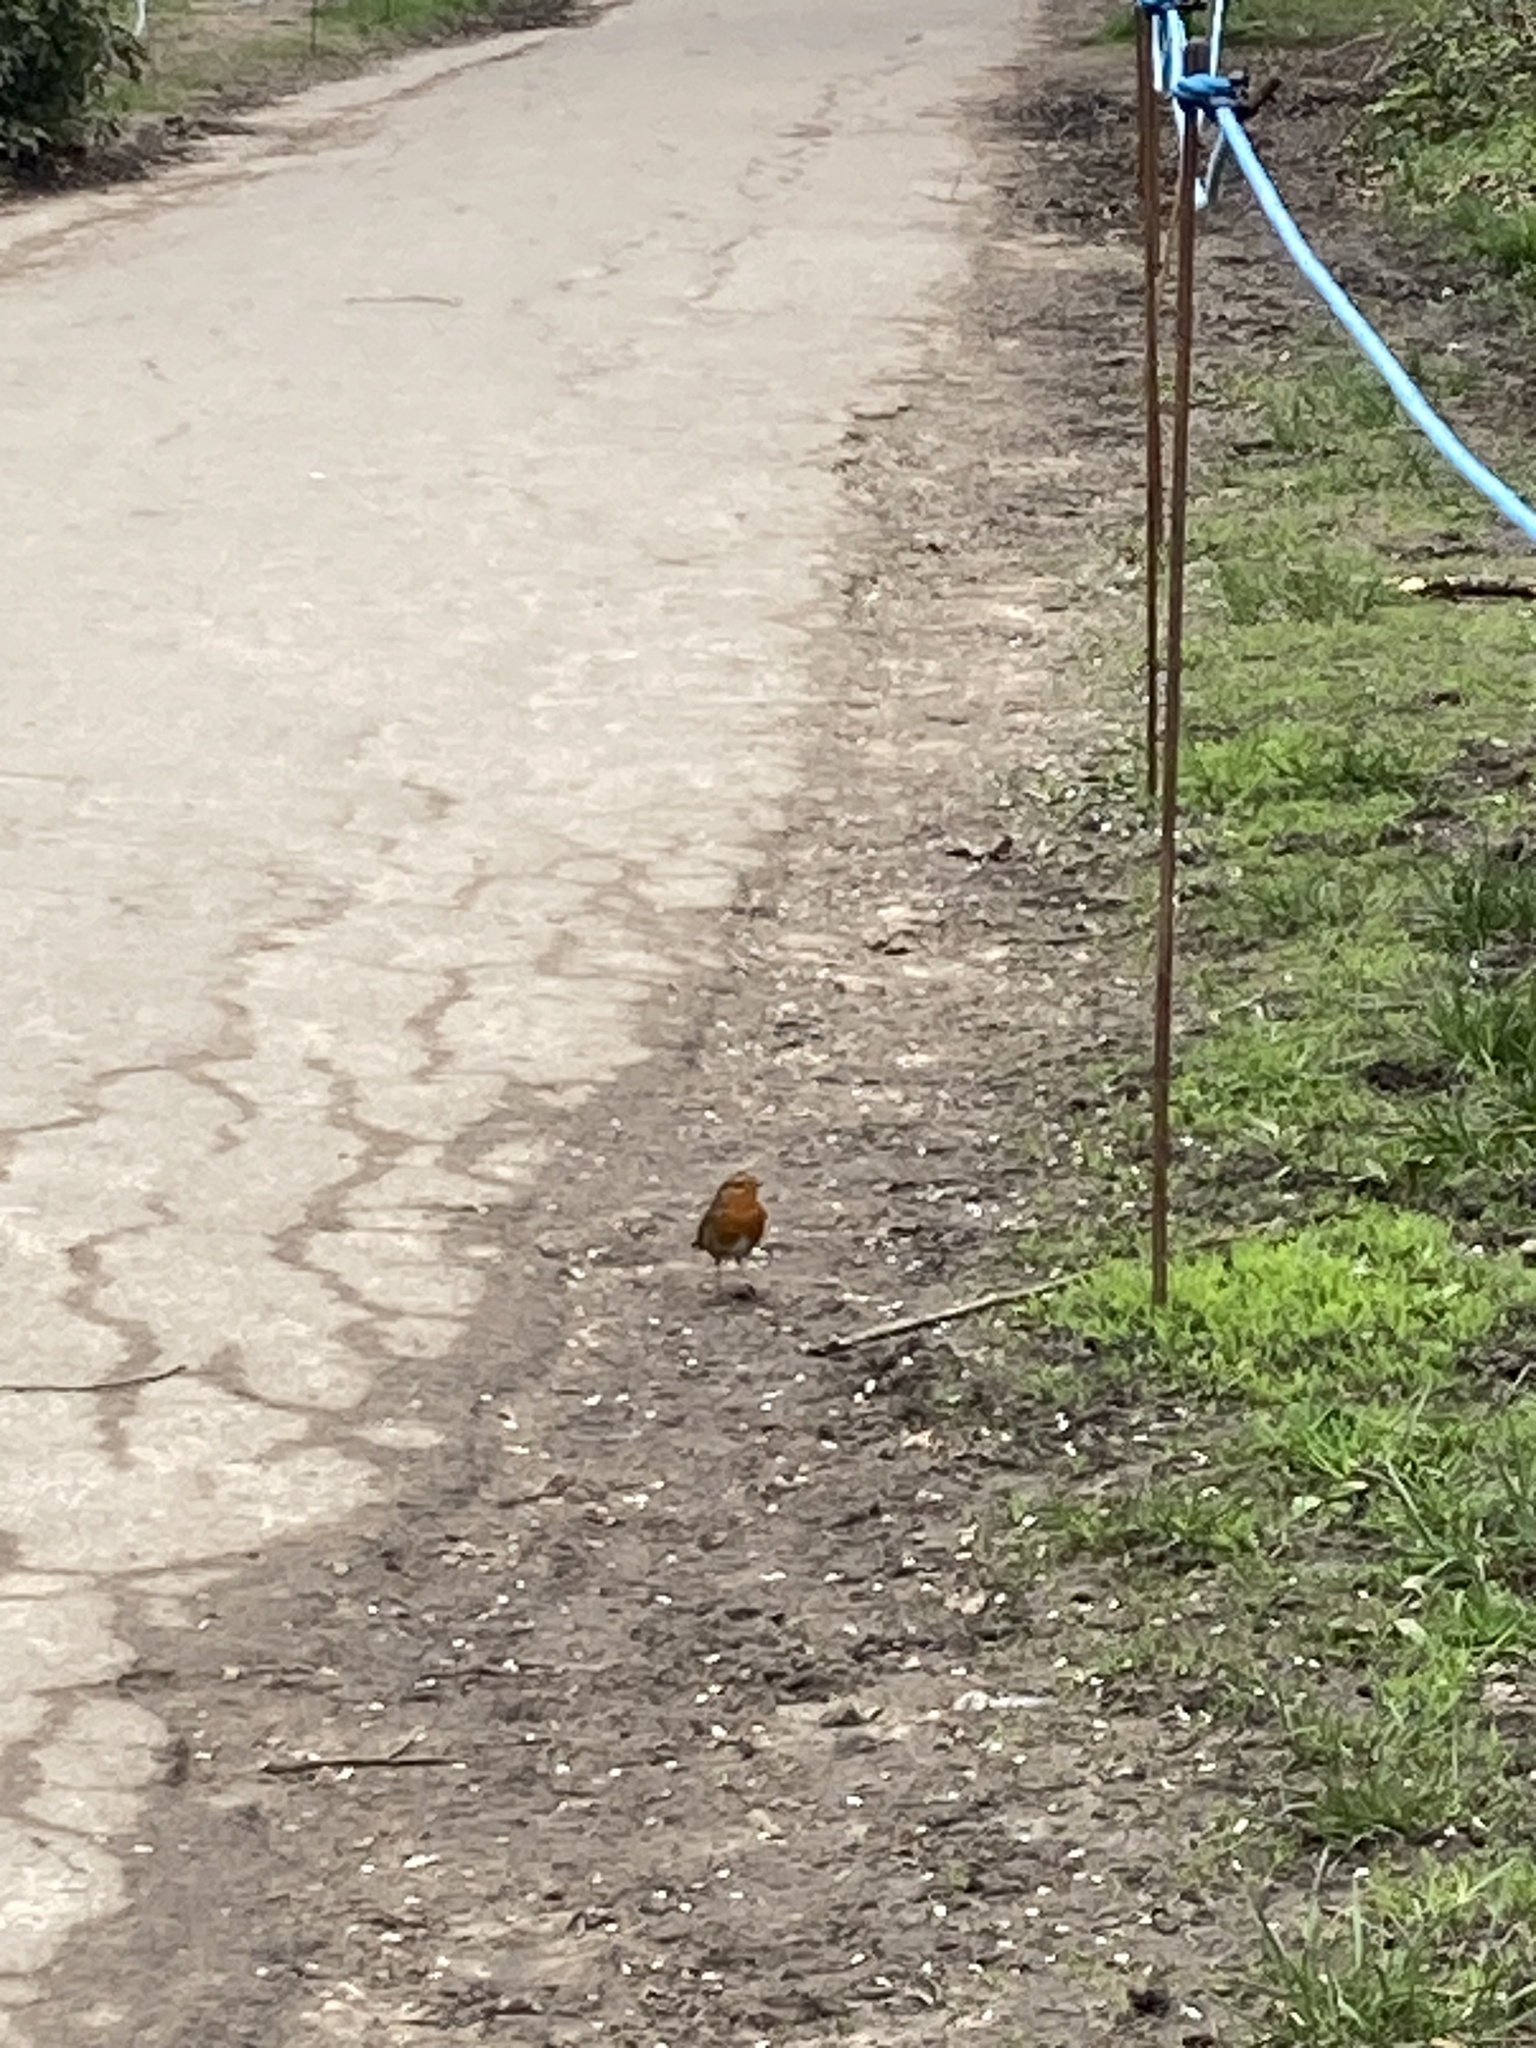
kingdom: Animalia
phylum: Chordata
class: Aves
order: Passeriformes
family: Muscicapidae
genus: Erithacus
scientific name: Erithacus rubecula
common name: European robin
